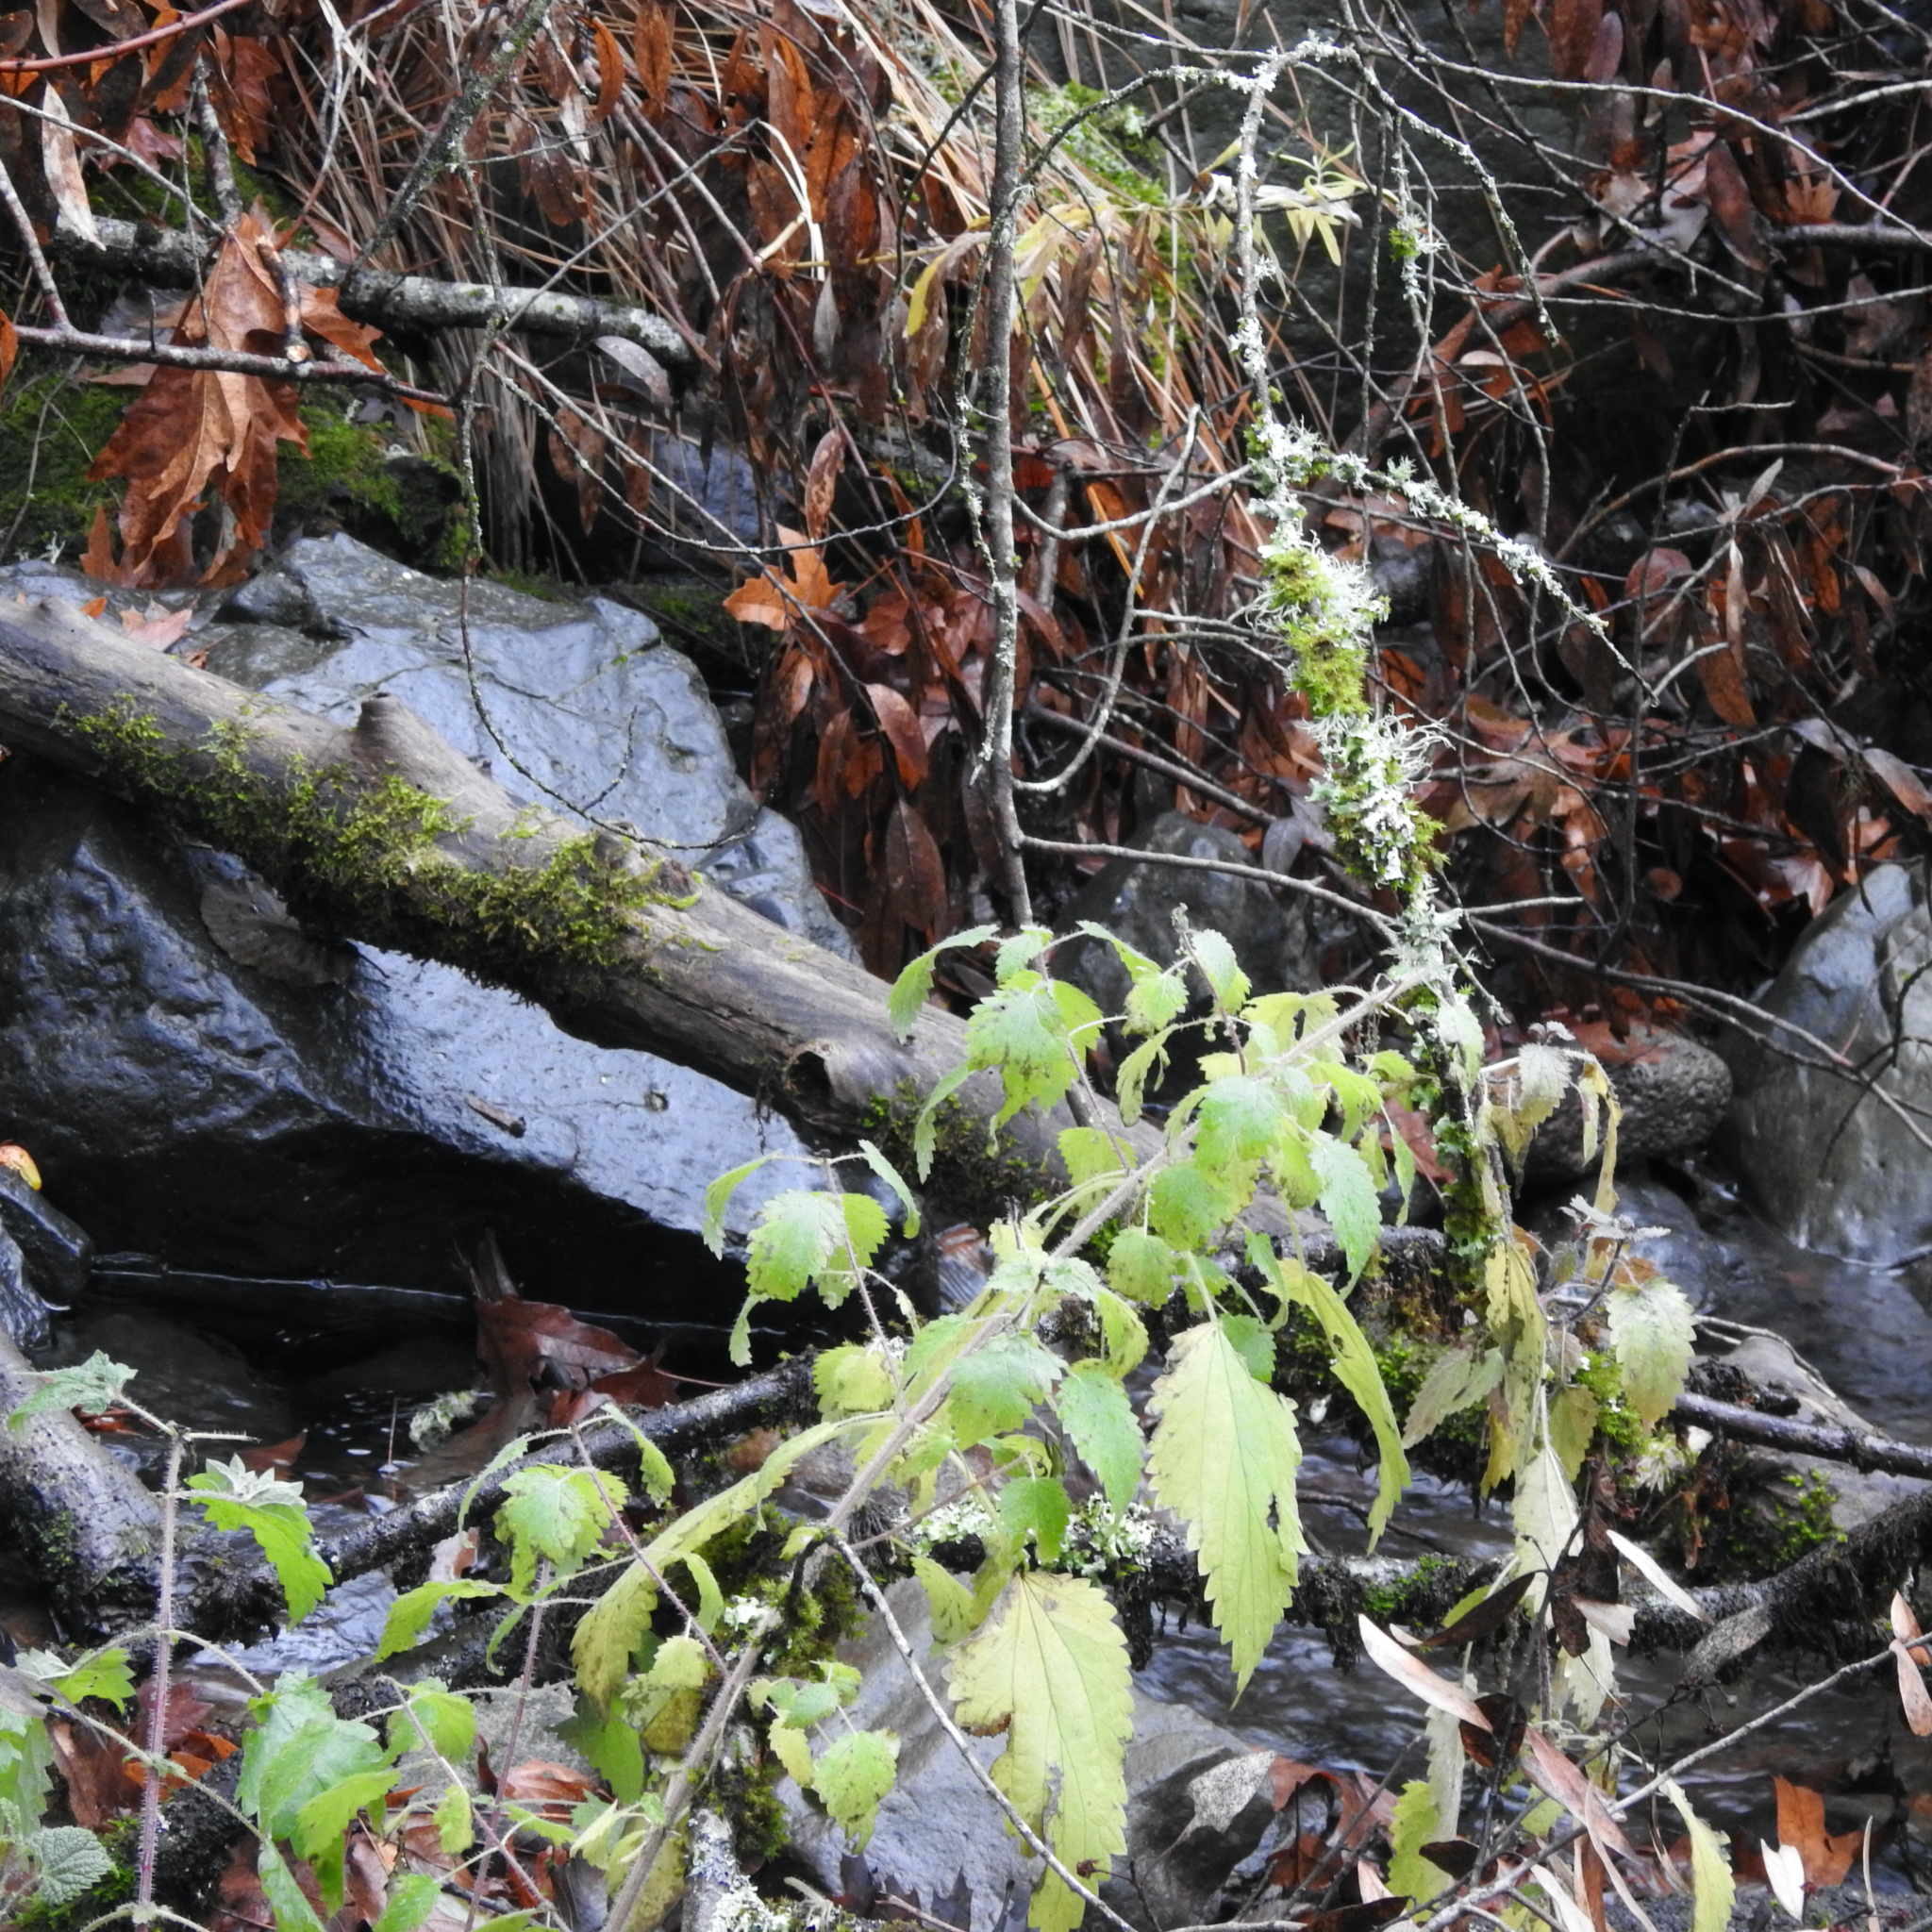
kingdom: Plantae
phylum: Tracheophyta
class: Magnoliopsida
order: Rosales
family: Urticaceae
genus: Urtica
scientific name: Urtica dioica
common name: Common nettle
